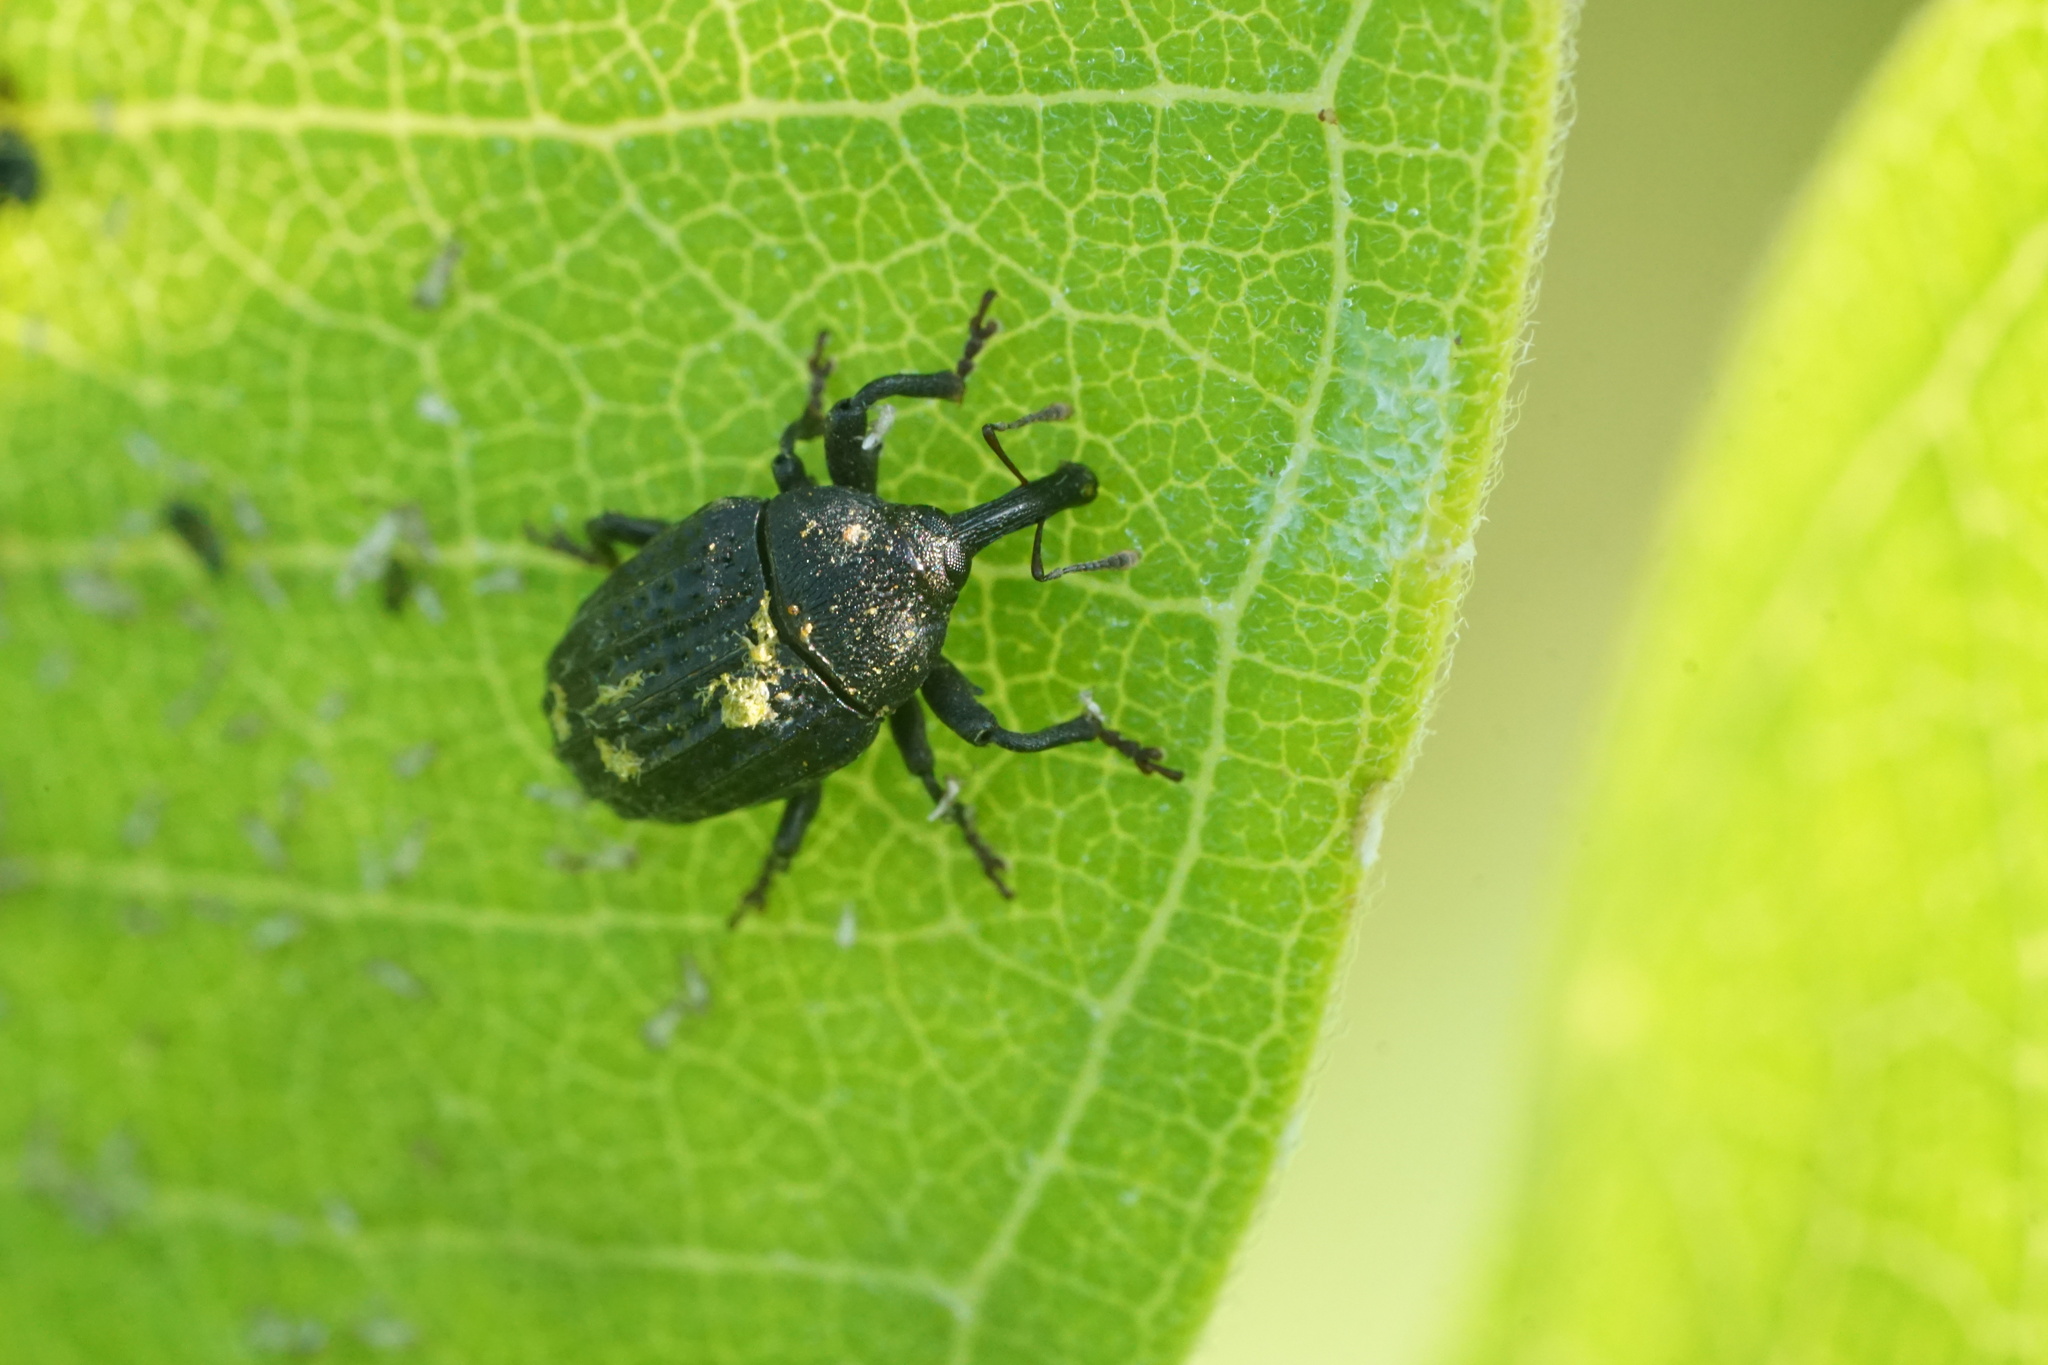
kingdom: Animalia
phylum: Arthropoda
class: Insecta
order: Coleoptera
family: Curculionidae
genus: Rhyssomatus
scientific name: Rhyssomatus lineaticollis
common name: Milkweed stem weevil
